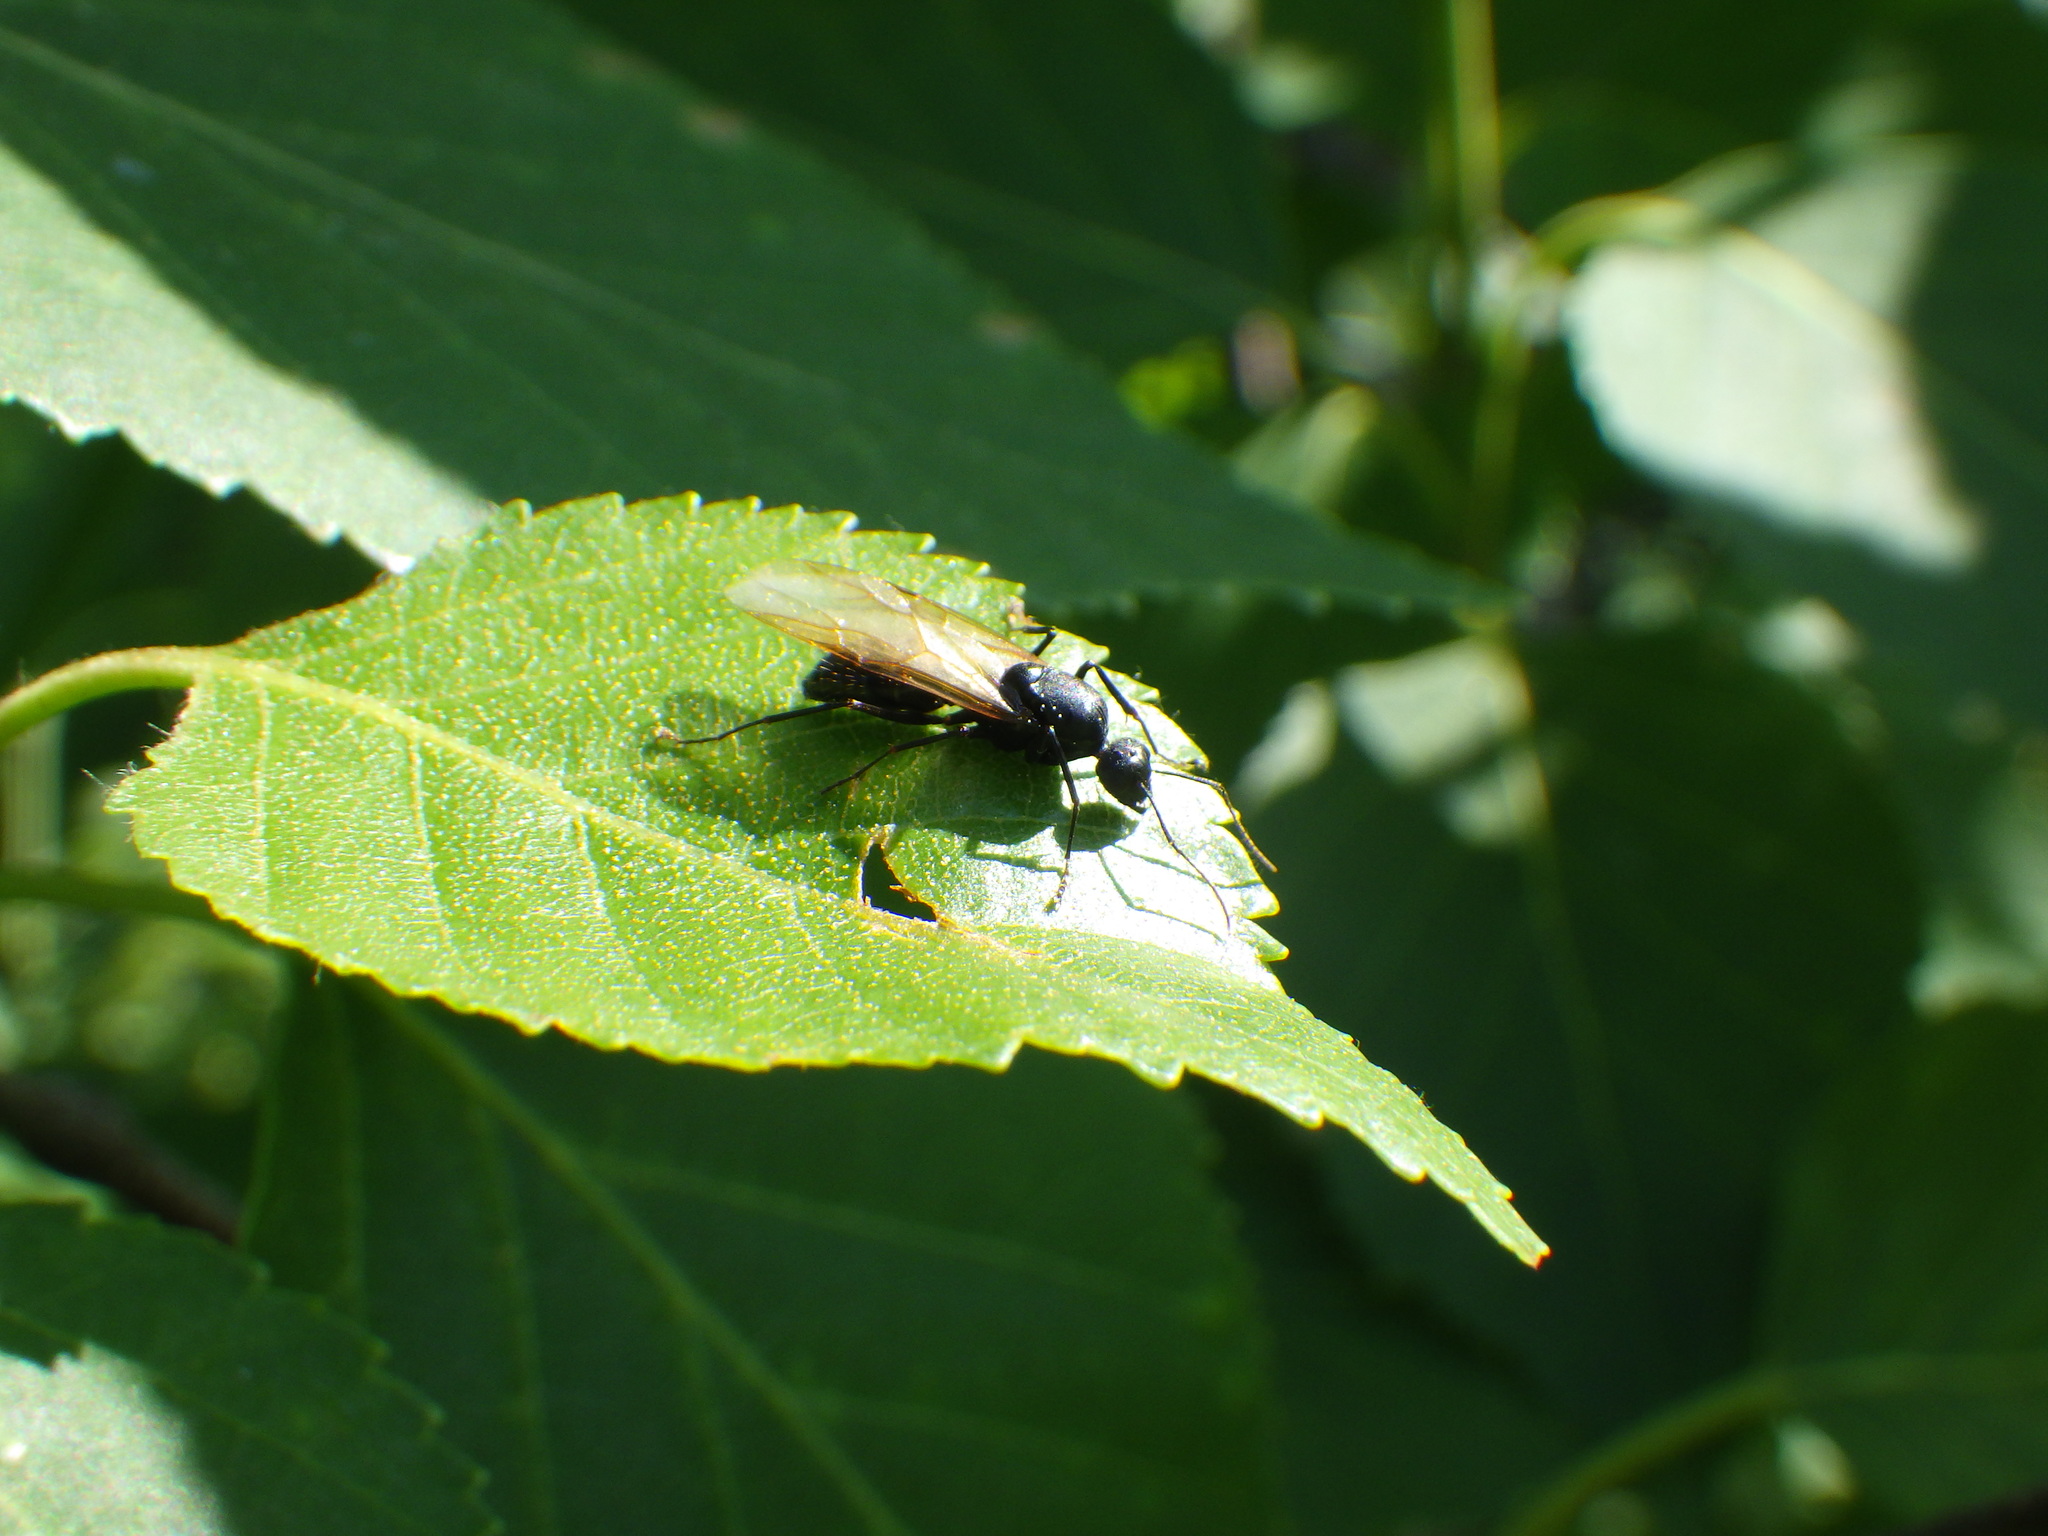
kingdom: Animalia
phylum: Arthropoda
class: Insecta
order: Hymenoptera
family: Formicidae
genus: Camponotus
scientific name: Camponotus pennsylvanicus
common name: Black carpenter ant
